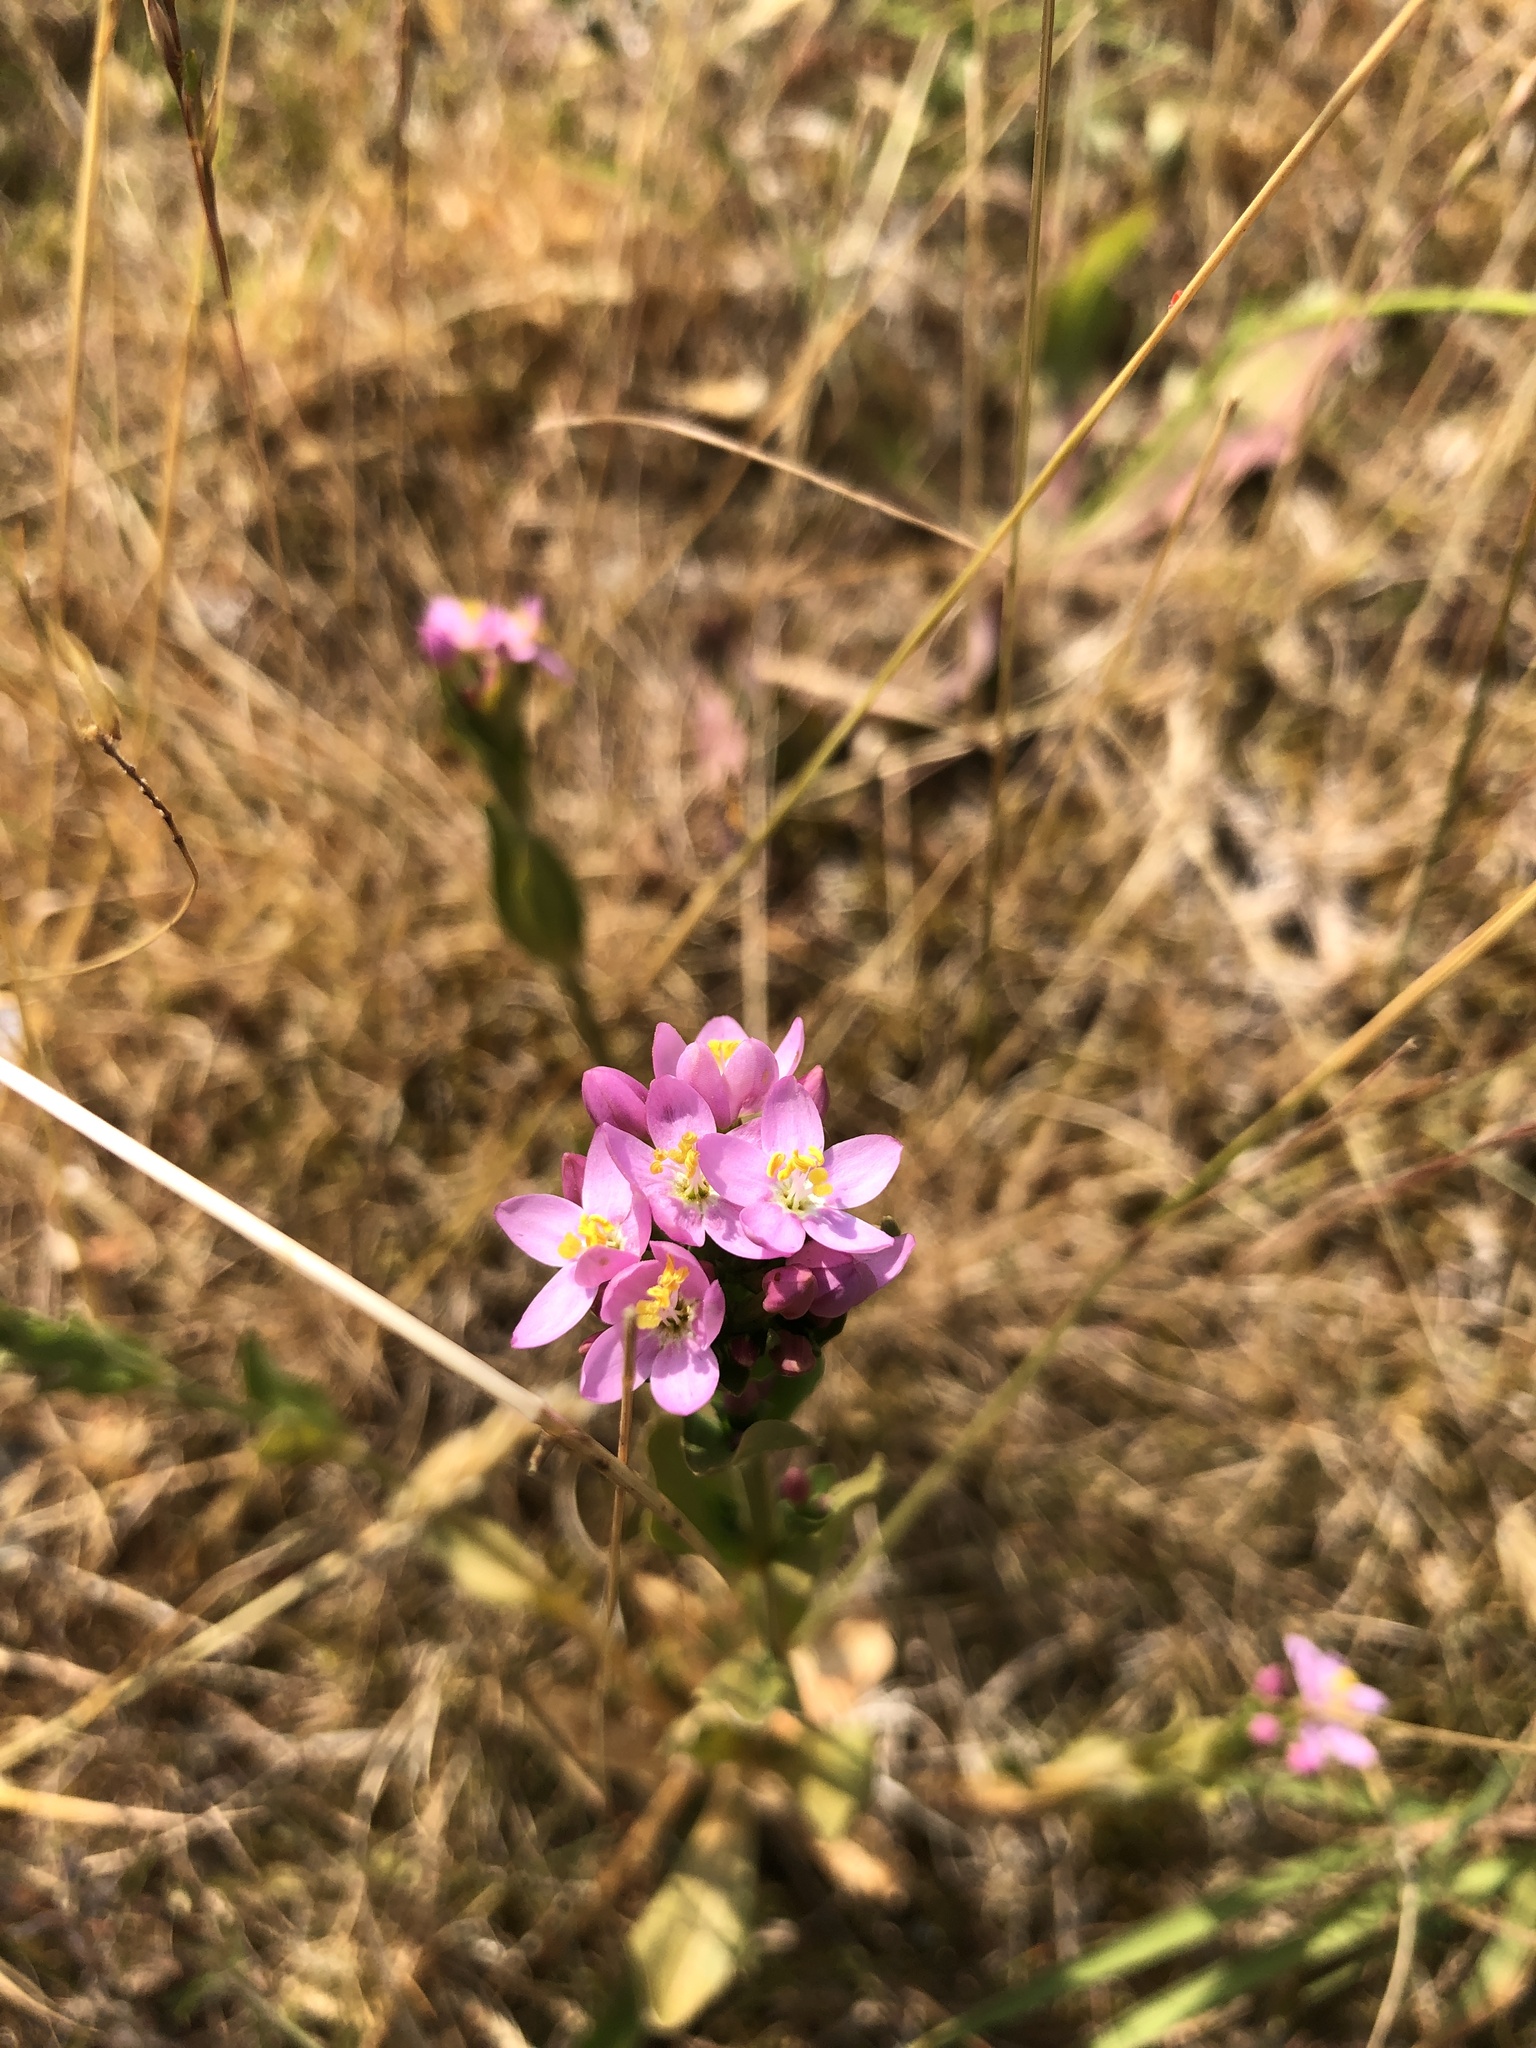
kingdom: Plantae
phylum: Tracheophyta
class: Magnoliopsida
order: Gentianales
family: Gentianaceae
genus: Centaurium
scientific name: Centaurium erythraea
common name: Common centaury
